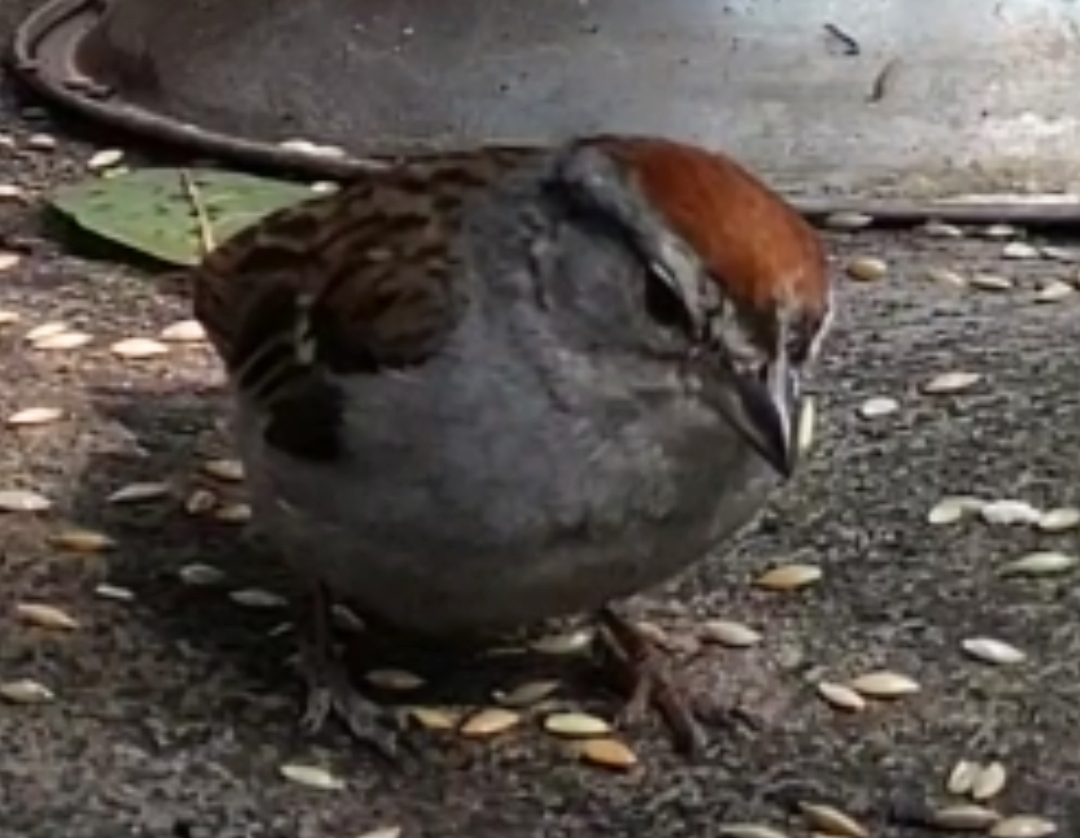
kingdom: Animalia
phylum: Chordata
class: Aves
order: Passeriformes
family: Passerellidae
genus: Spizella
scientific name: Spizella passerina
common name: Chipping sparrow
